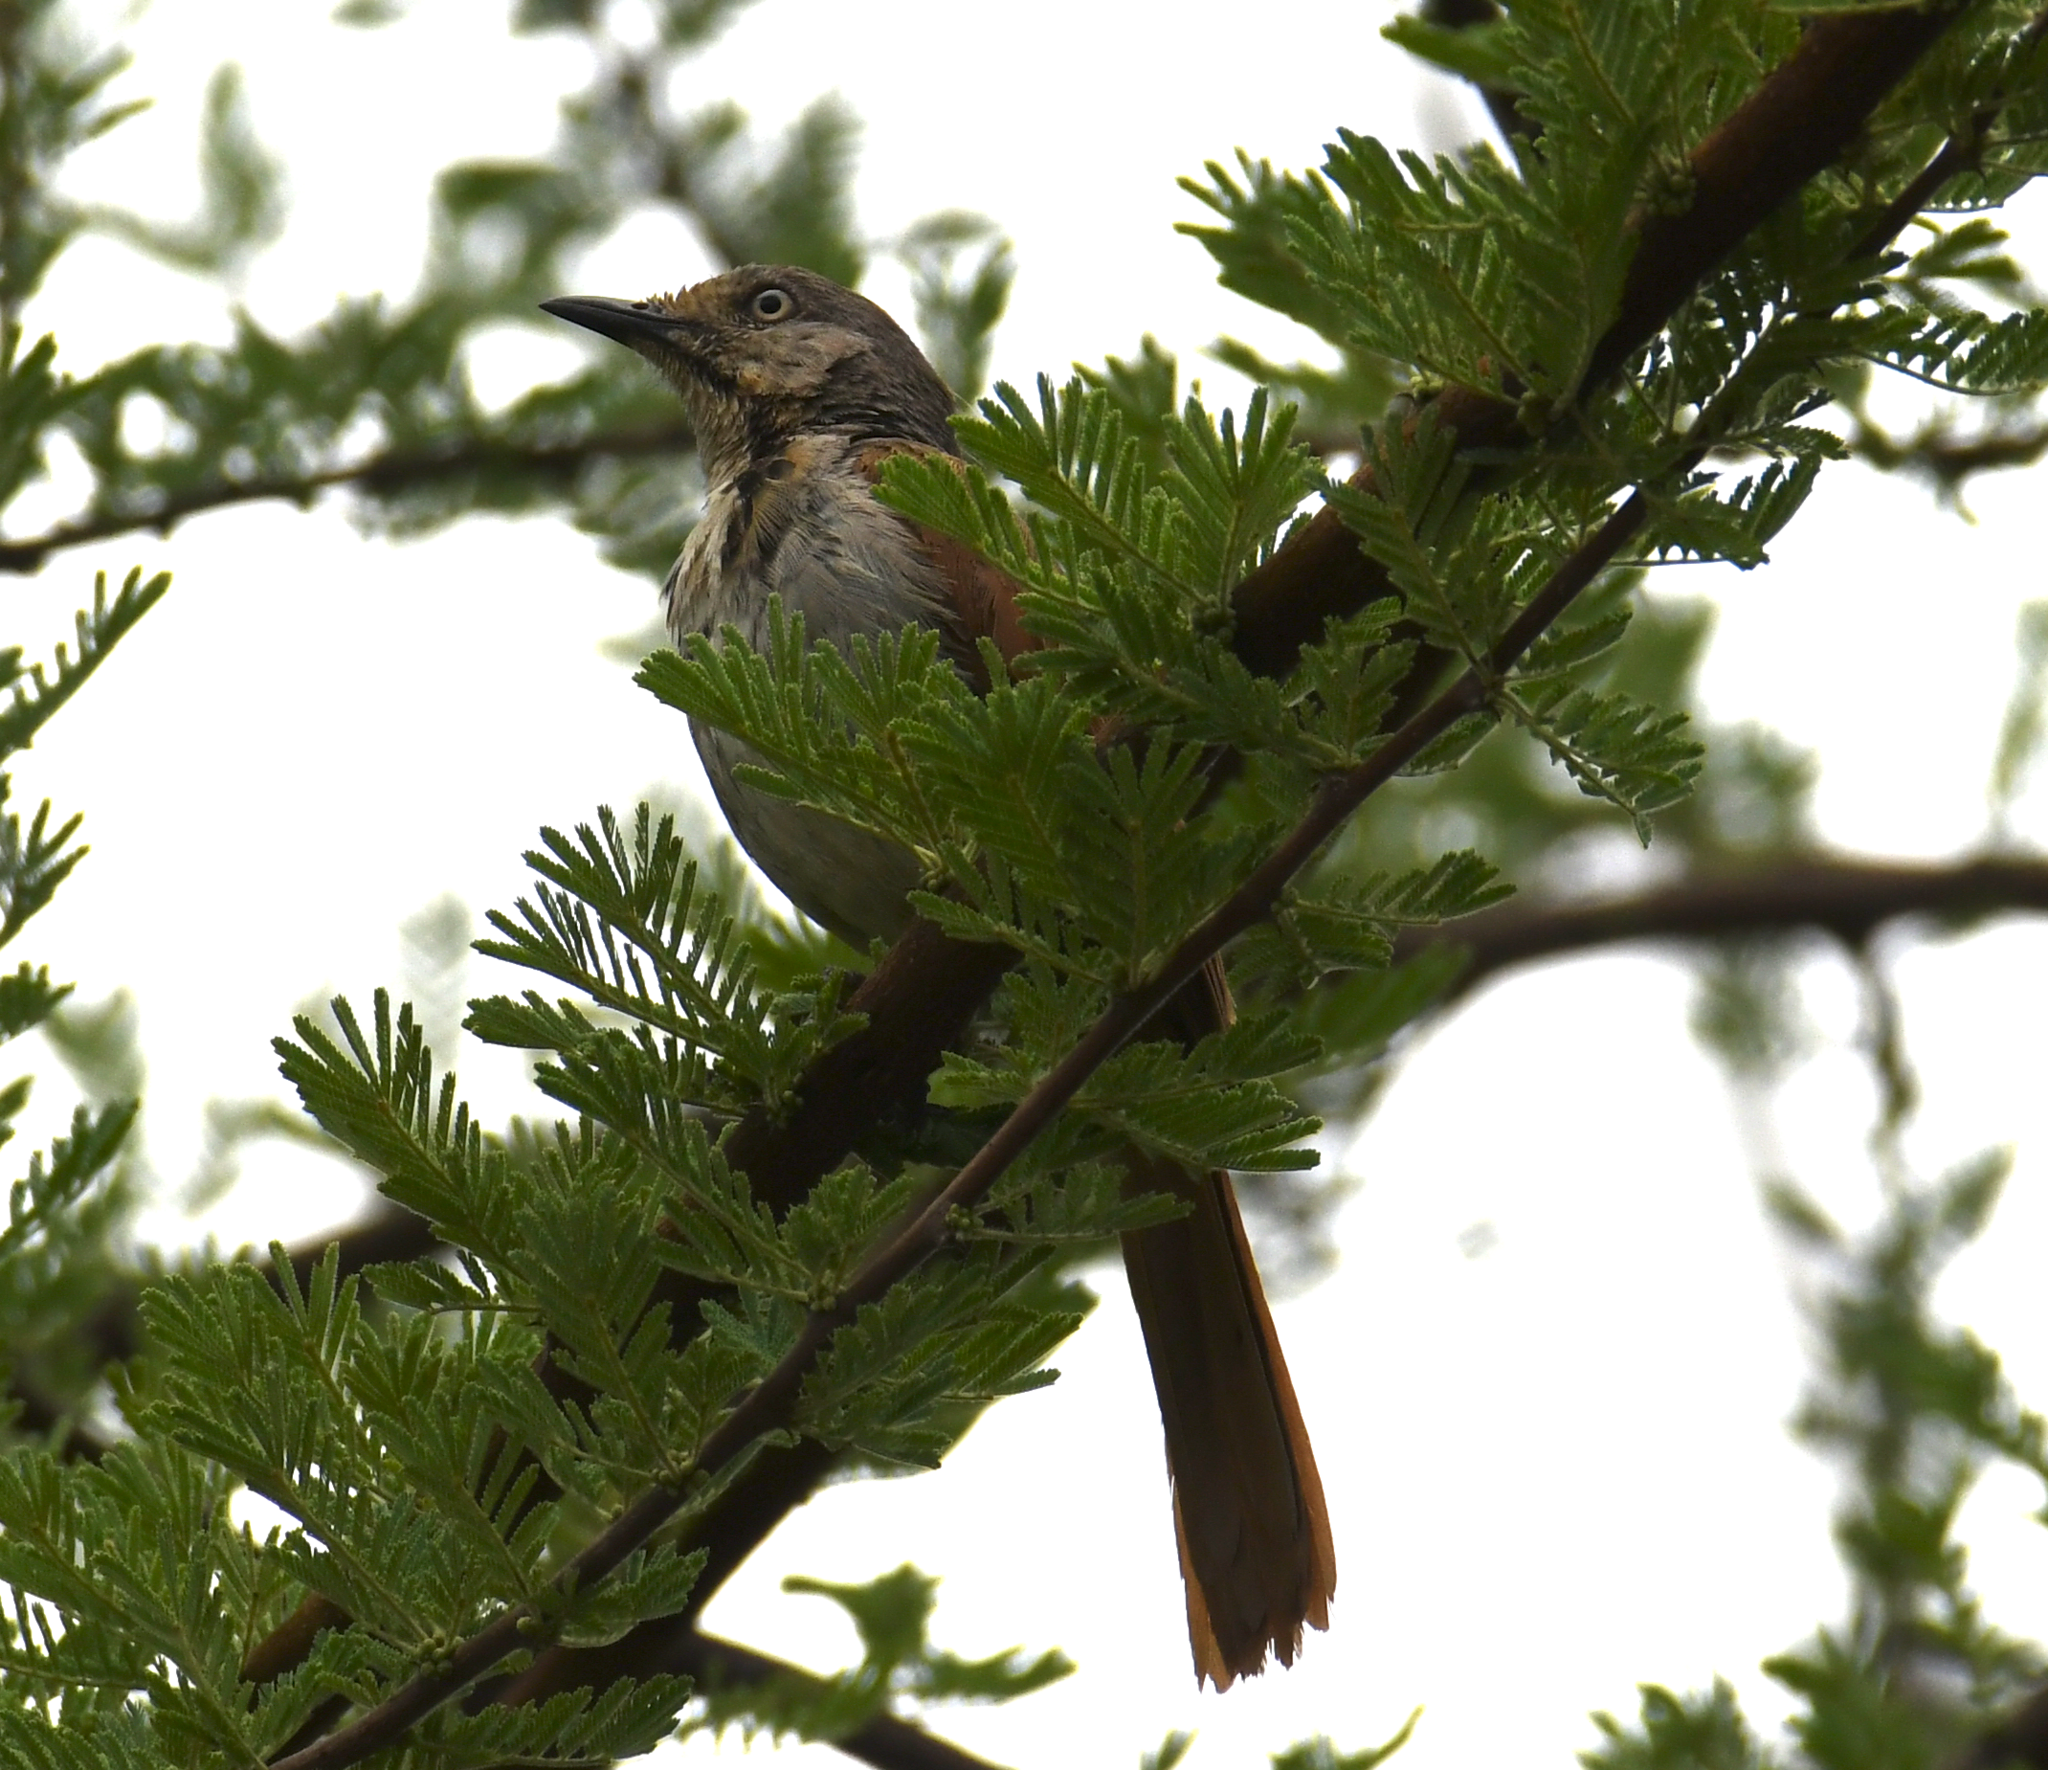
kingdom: Animalia
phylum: Chordata
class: Aves
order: Passeriformes
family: Muscicapidae
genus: Cichladusa
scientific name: Cichladusa arquata
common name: Collared palm thrush
